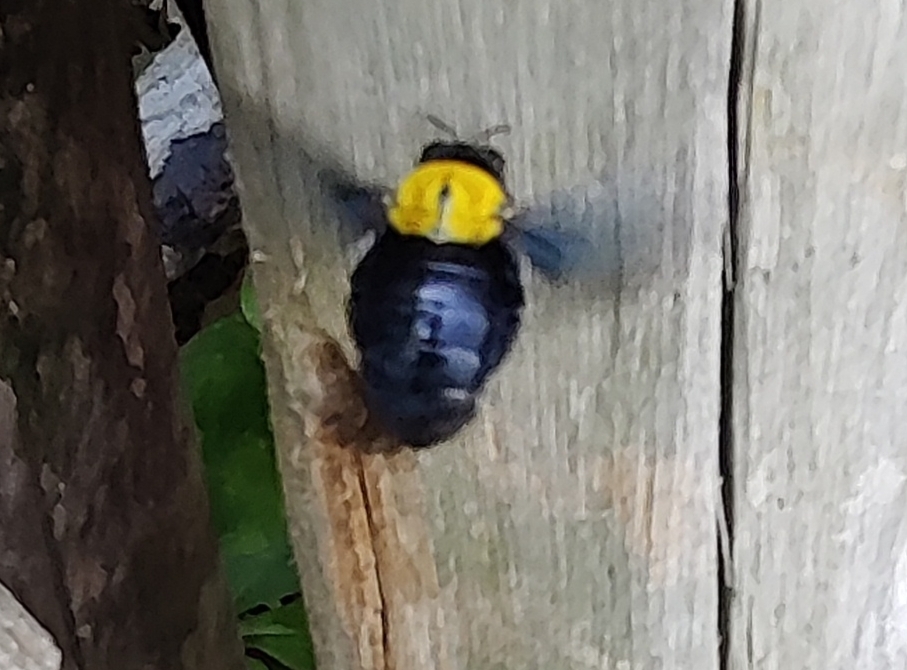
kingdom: Animalia
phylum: Arthropoda
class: Insecta
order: Hymenoptera
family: Apidae
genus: Xylocopa
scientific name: Xylocopa aestuans
